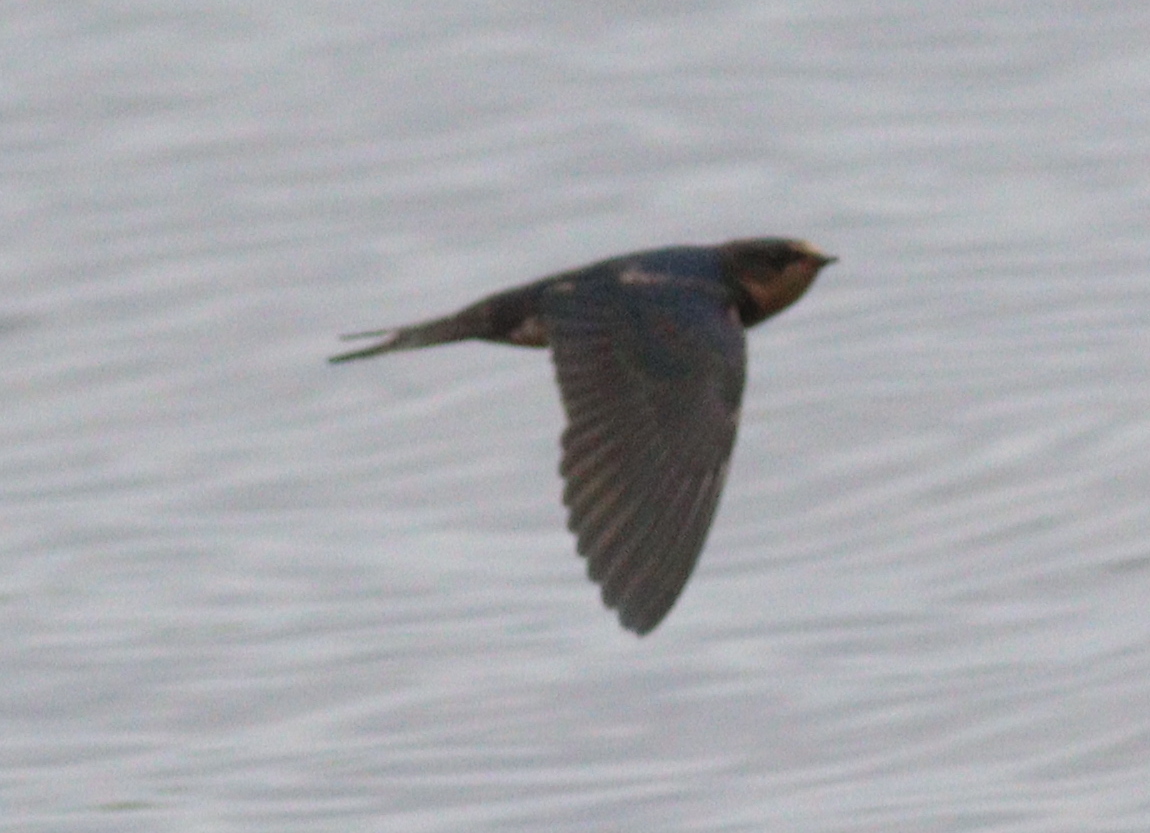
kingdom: Animalia
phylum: Chordata
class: Aves
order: Passeriformes
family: Hirundinidae
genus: Hirundo
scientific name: Hirundo rustica
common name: Barn swallow
